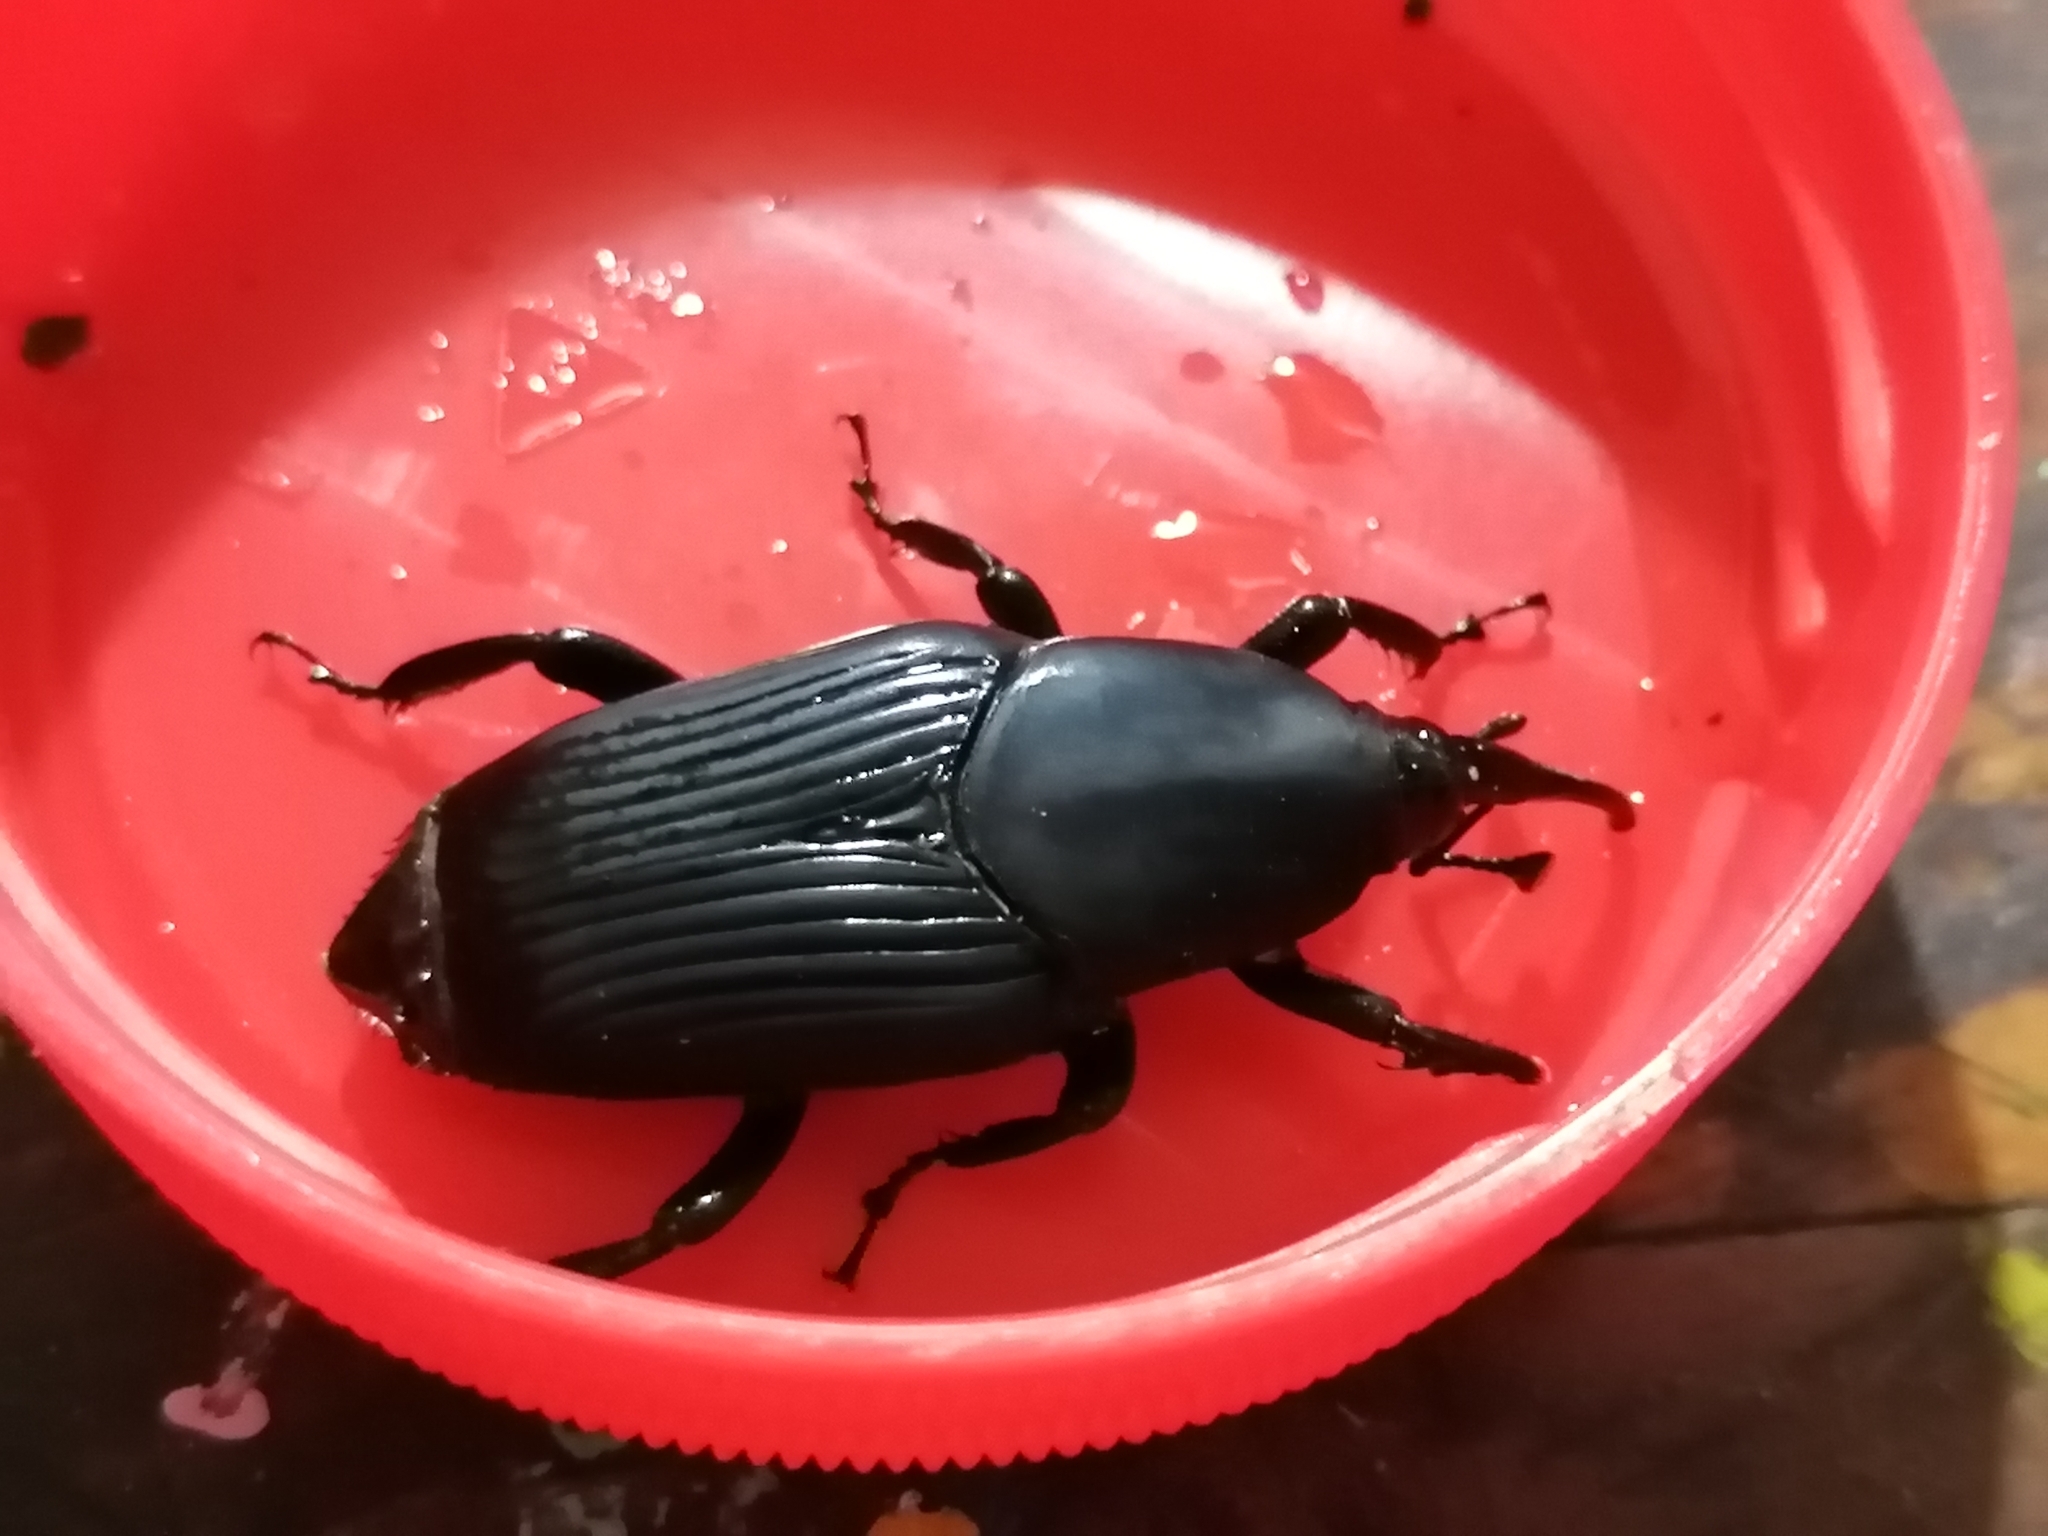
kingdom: Animalia
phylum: Arthropoda
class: Insecta
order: Coleoptera
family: Dryophthoridae
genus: Rhynchophorus
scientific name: Rhynchophorus palmarum
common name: Palm weevil
